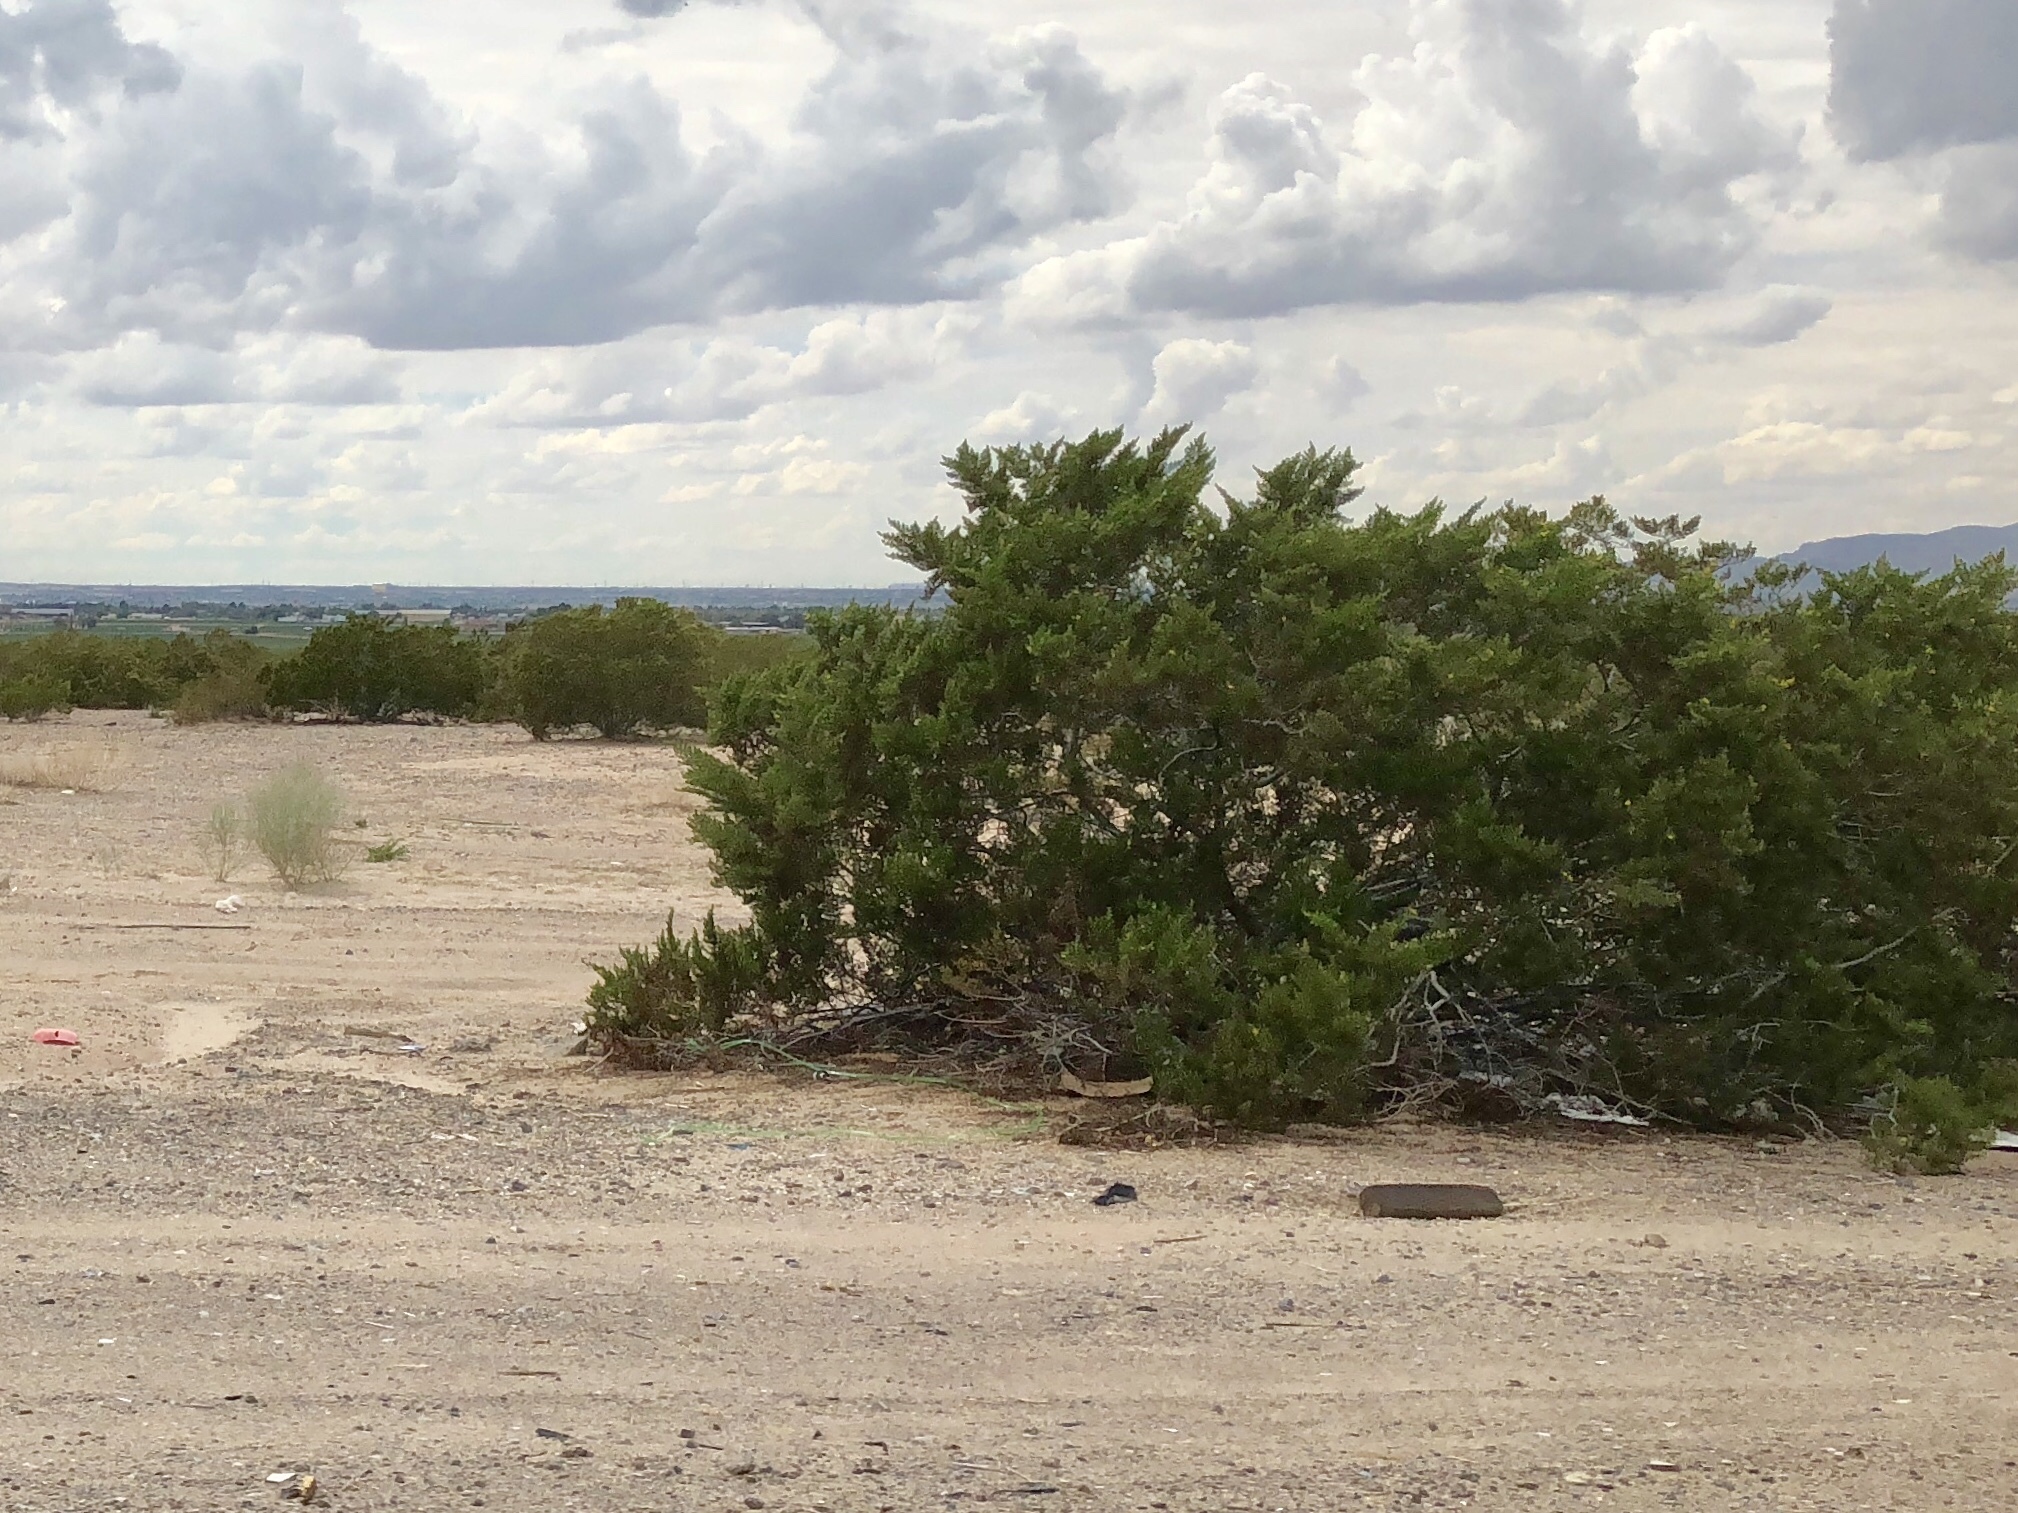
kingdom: Plantae
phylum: Tracheophyta
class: Magnoliopsida
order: Zygophyllales
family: Zygophyllaceae
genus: Larrea
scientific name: Larrea tridentata
